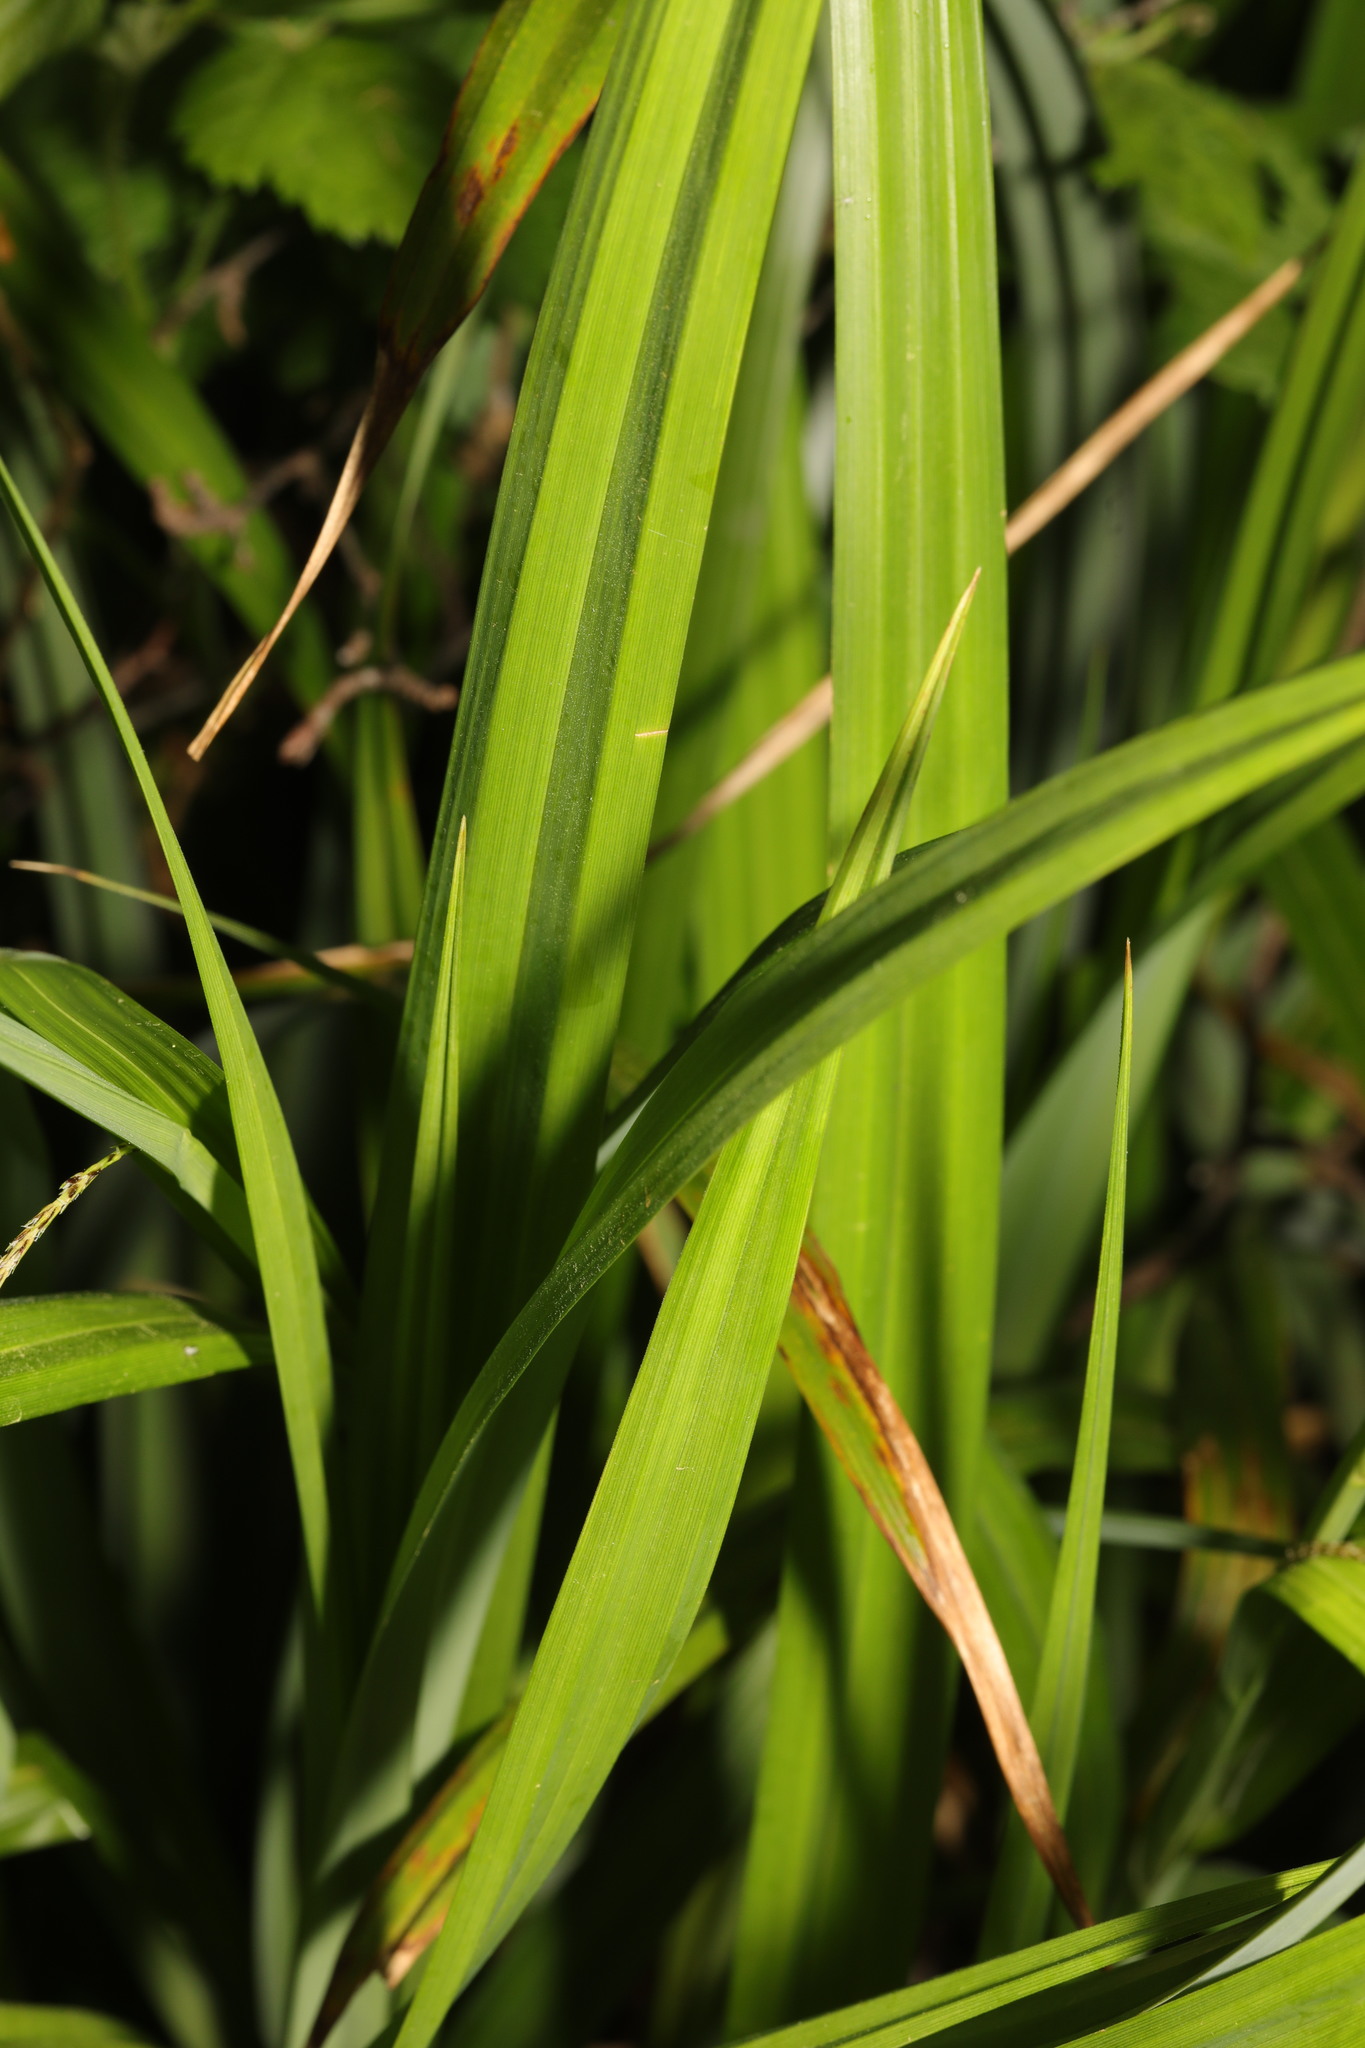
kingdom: Plantae
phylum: Tracheophyta
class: Liliopsida
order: Poales
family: Cyperaceae
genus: Carex
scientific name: Carex pendula
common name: Pendulous sedge
